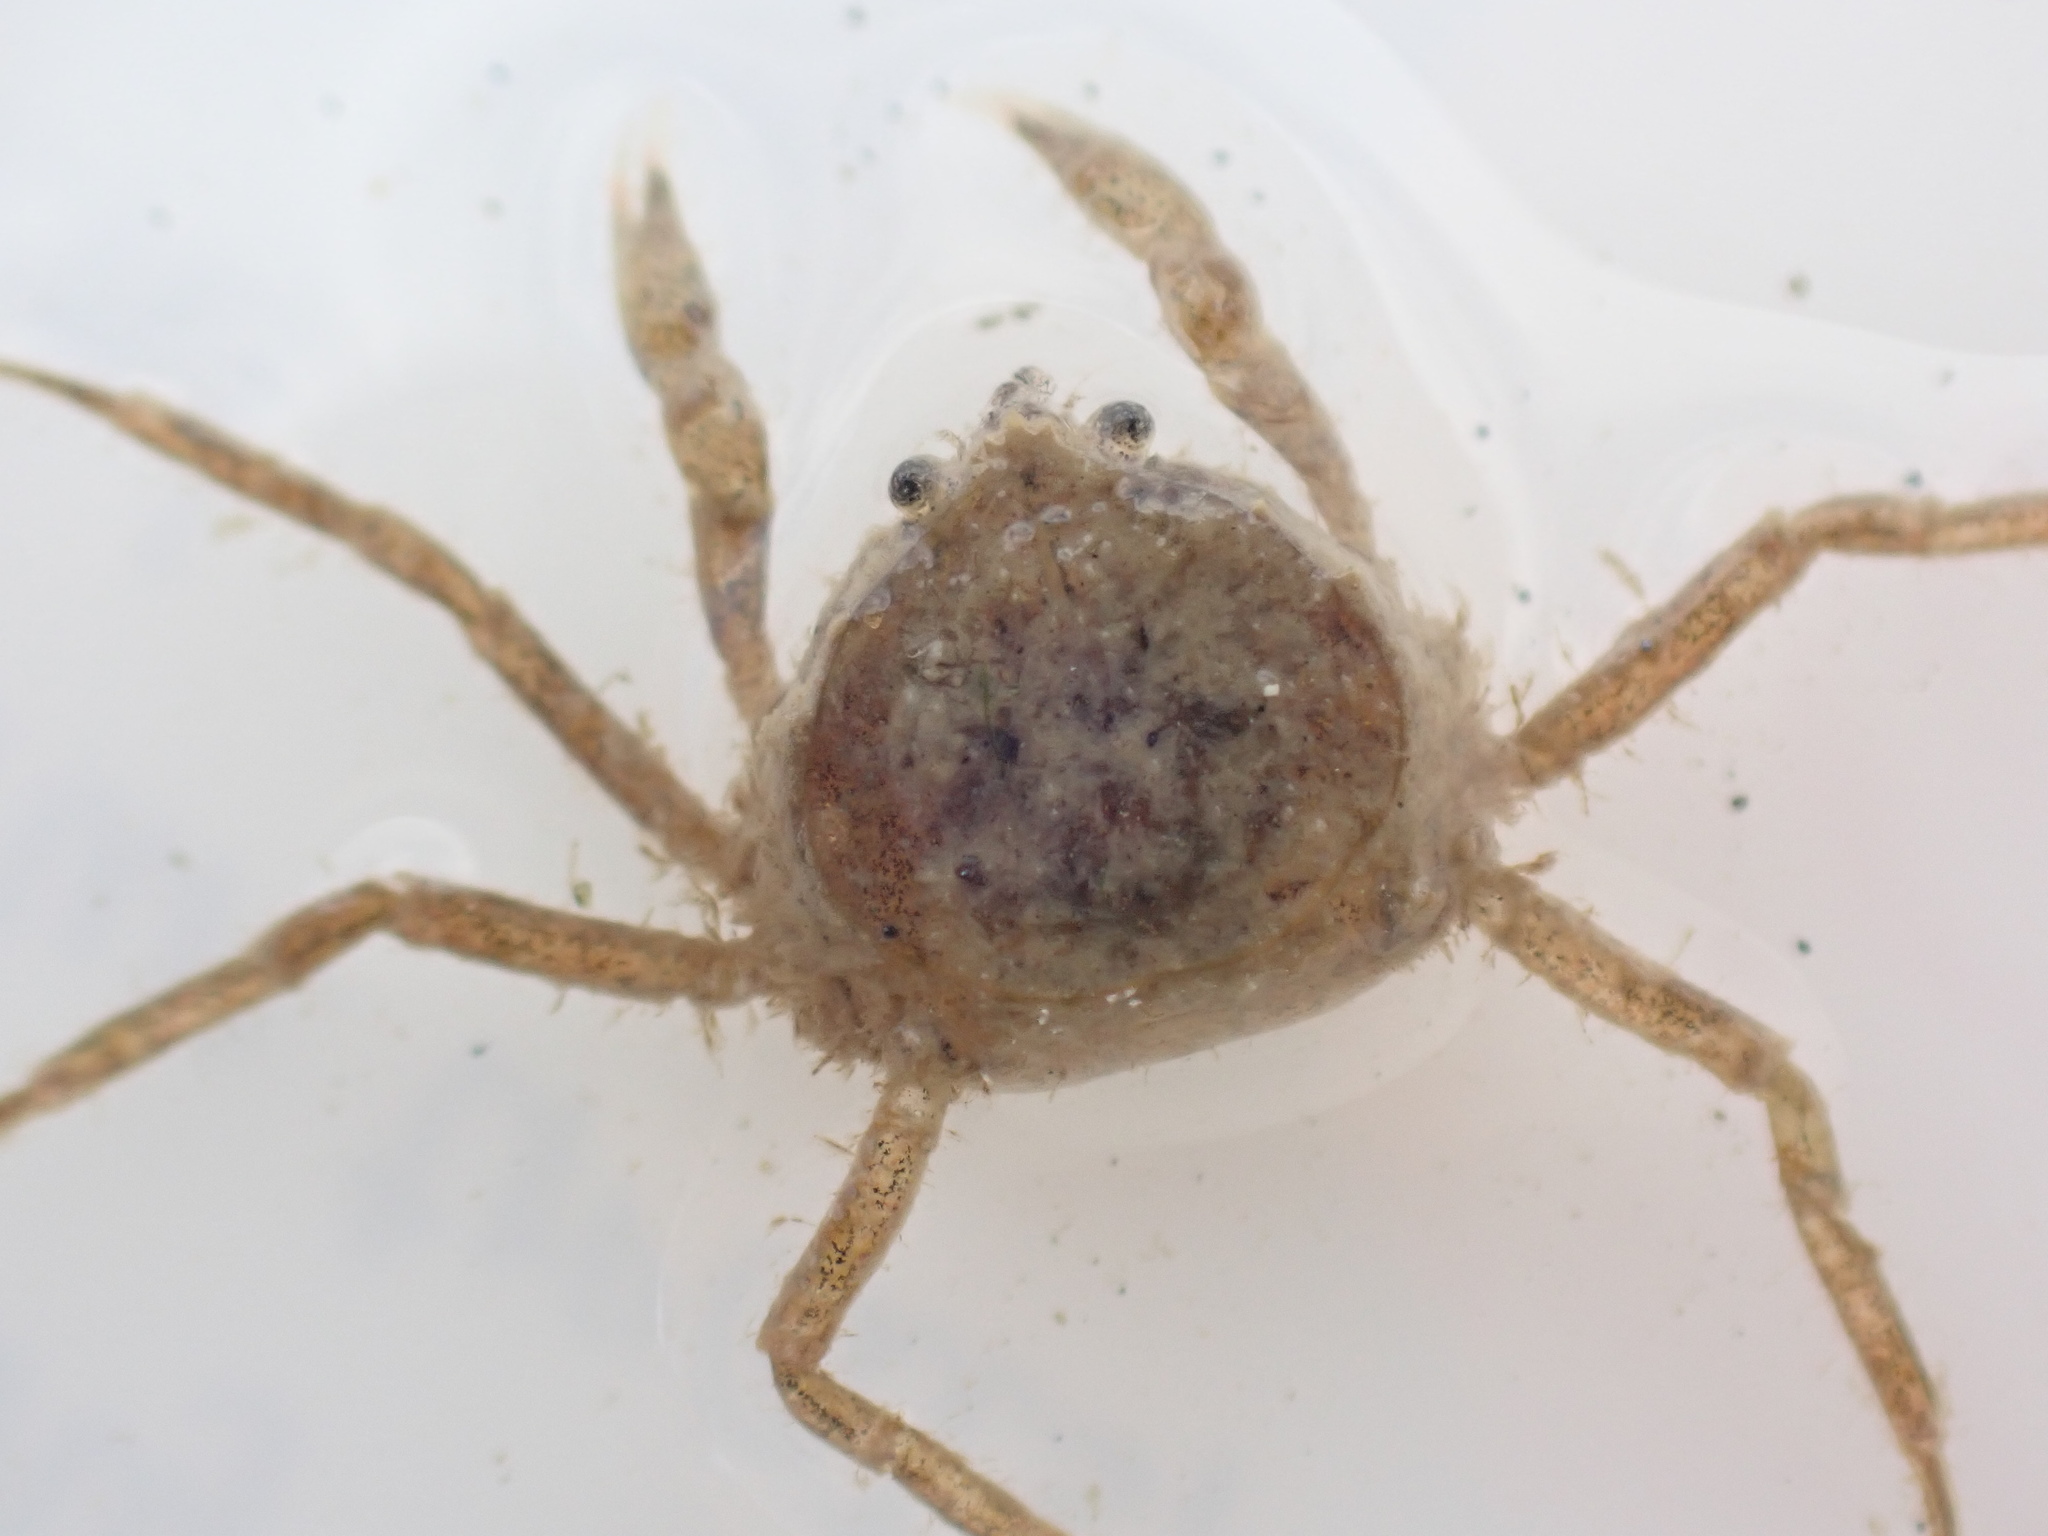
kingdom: Animalia
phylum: Arthropoda
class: Malacostraca
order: Decapoda
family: Hymenosomatidae
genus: Halicarcinus
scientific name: Halicarcinus varius
